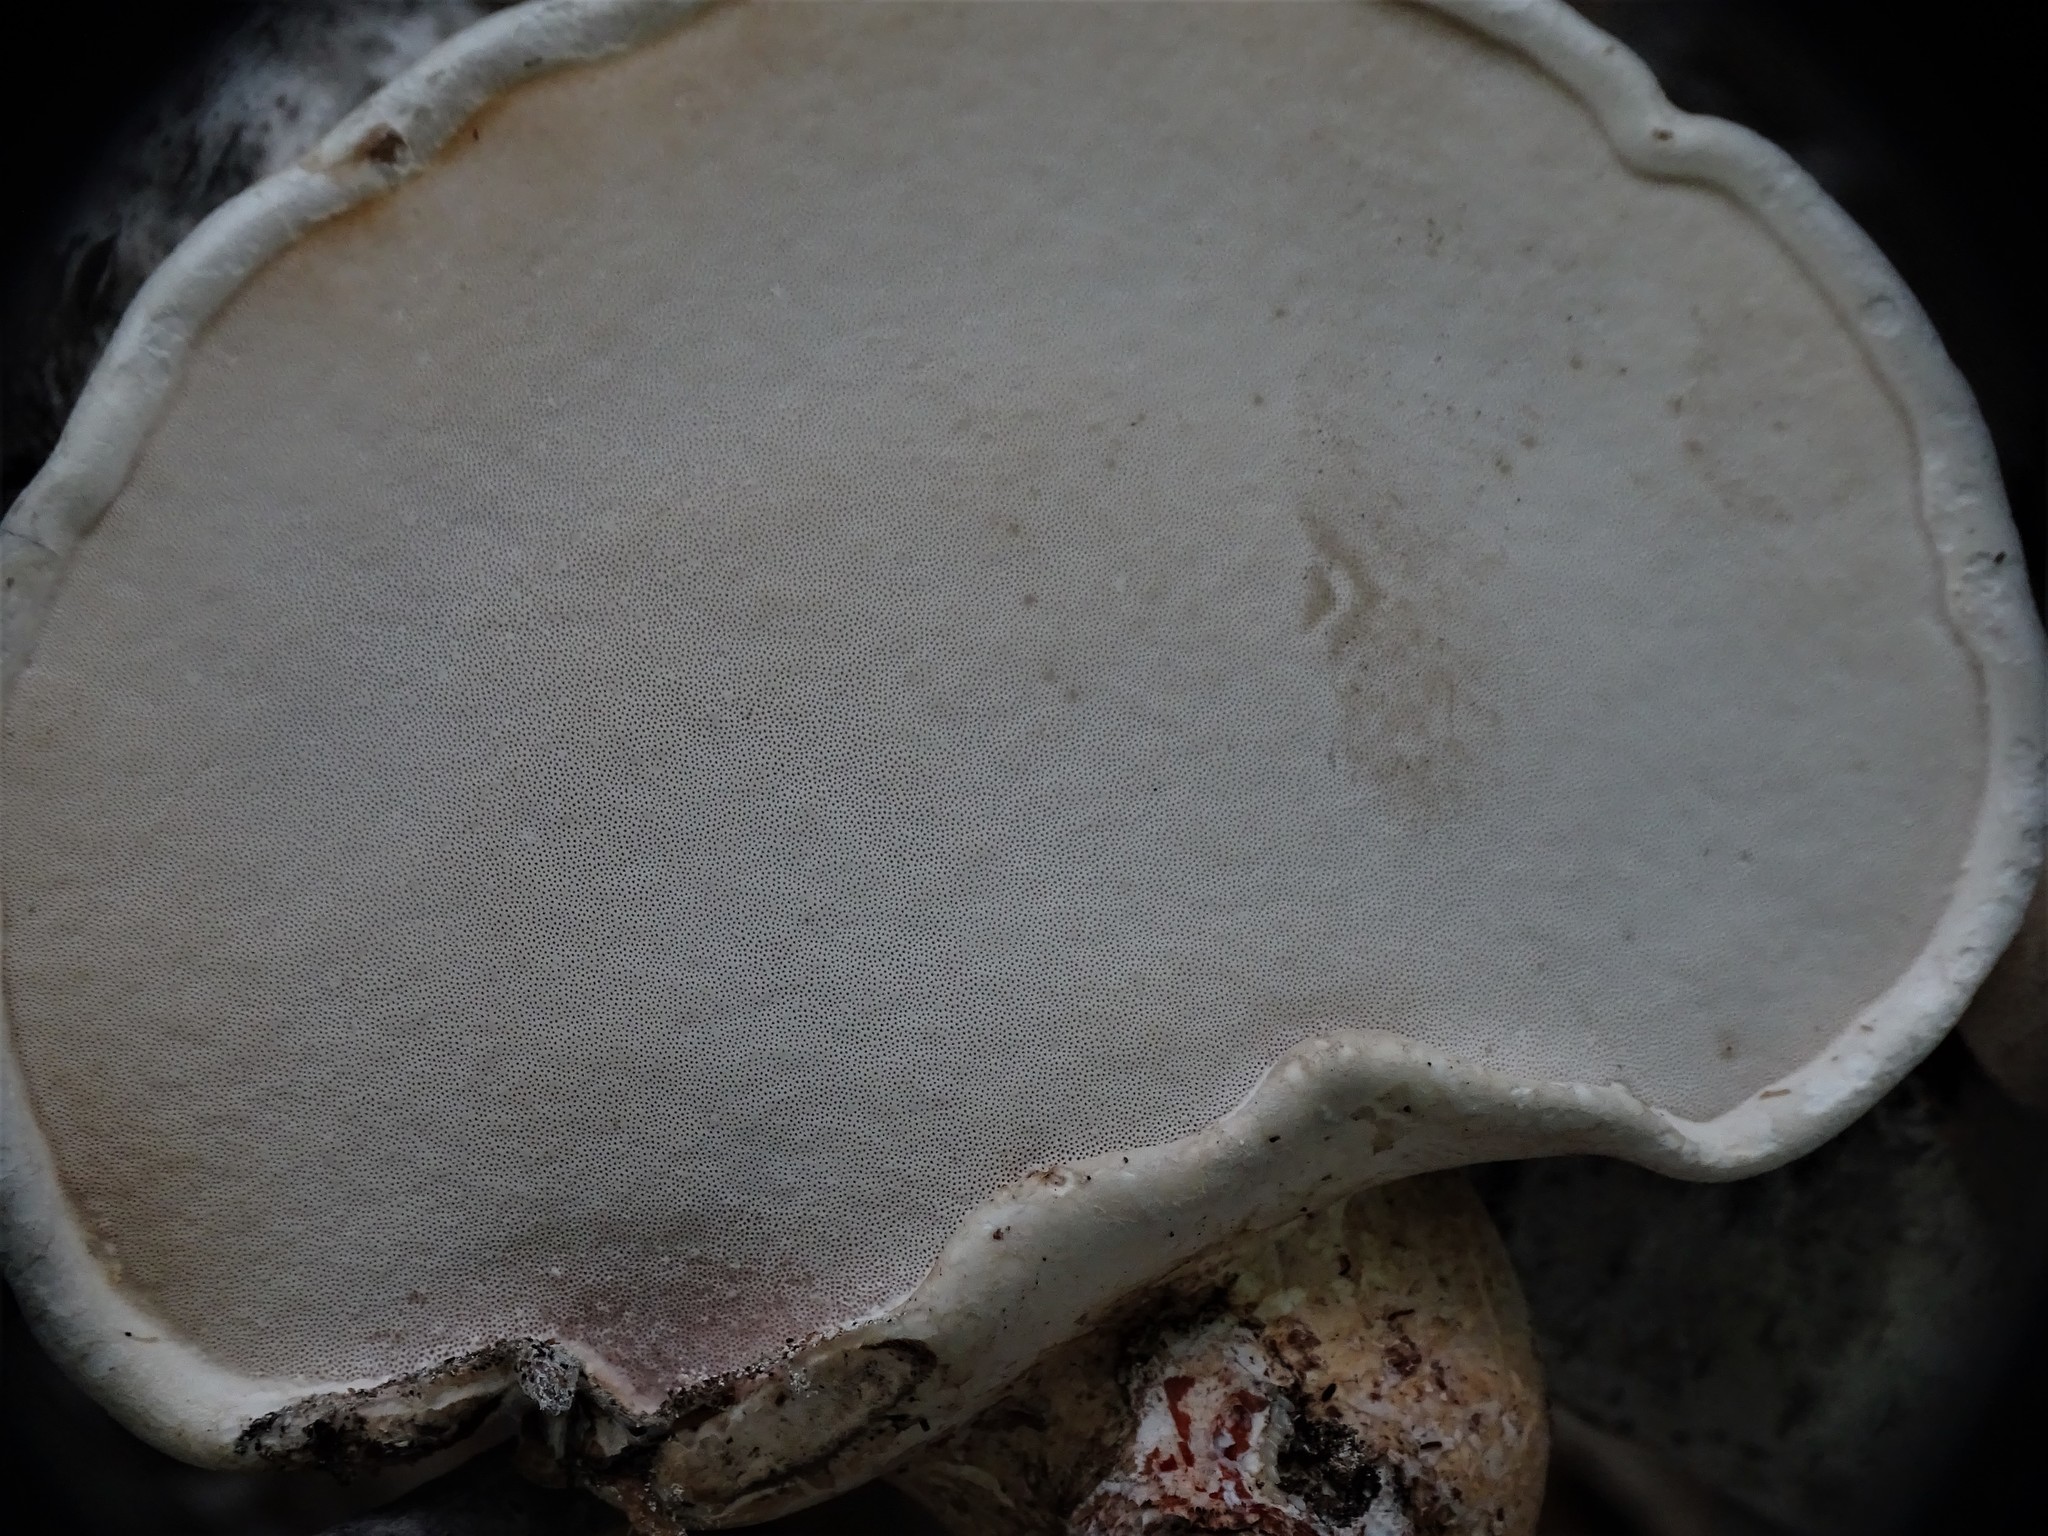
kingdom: Fungi
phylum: Basidiomycota
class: Agaricomycetes
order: Polyporales
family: Fomitopsidaceae
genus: Fomitopsis
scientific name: Fomitopsis betulina
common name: Birch polypore
